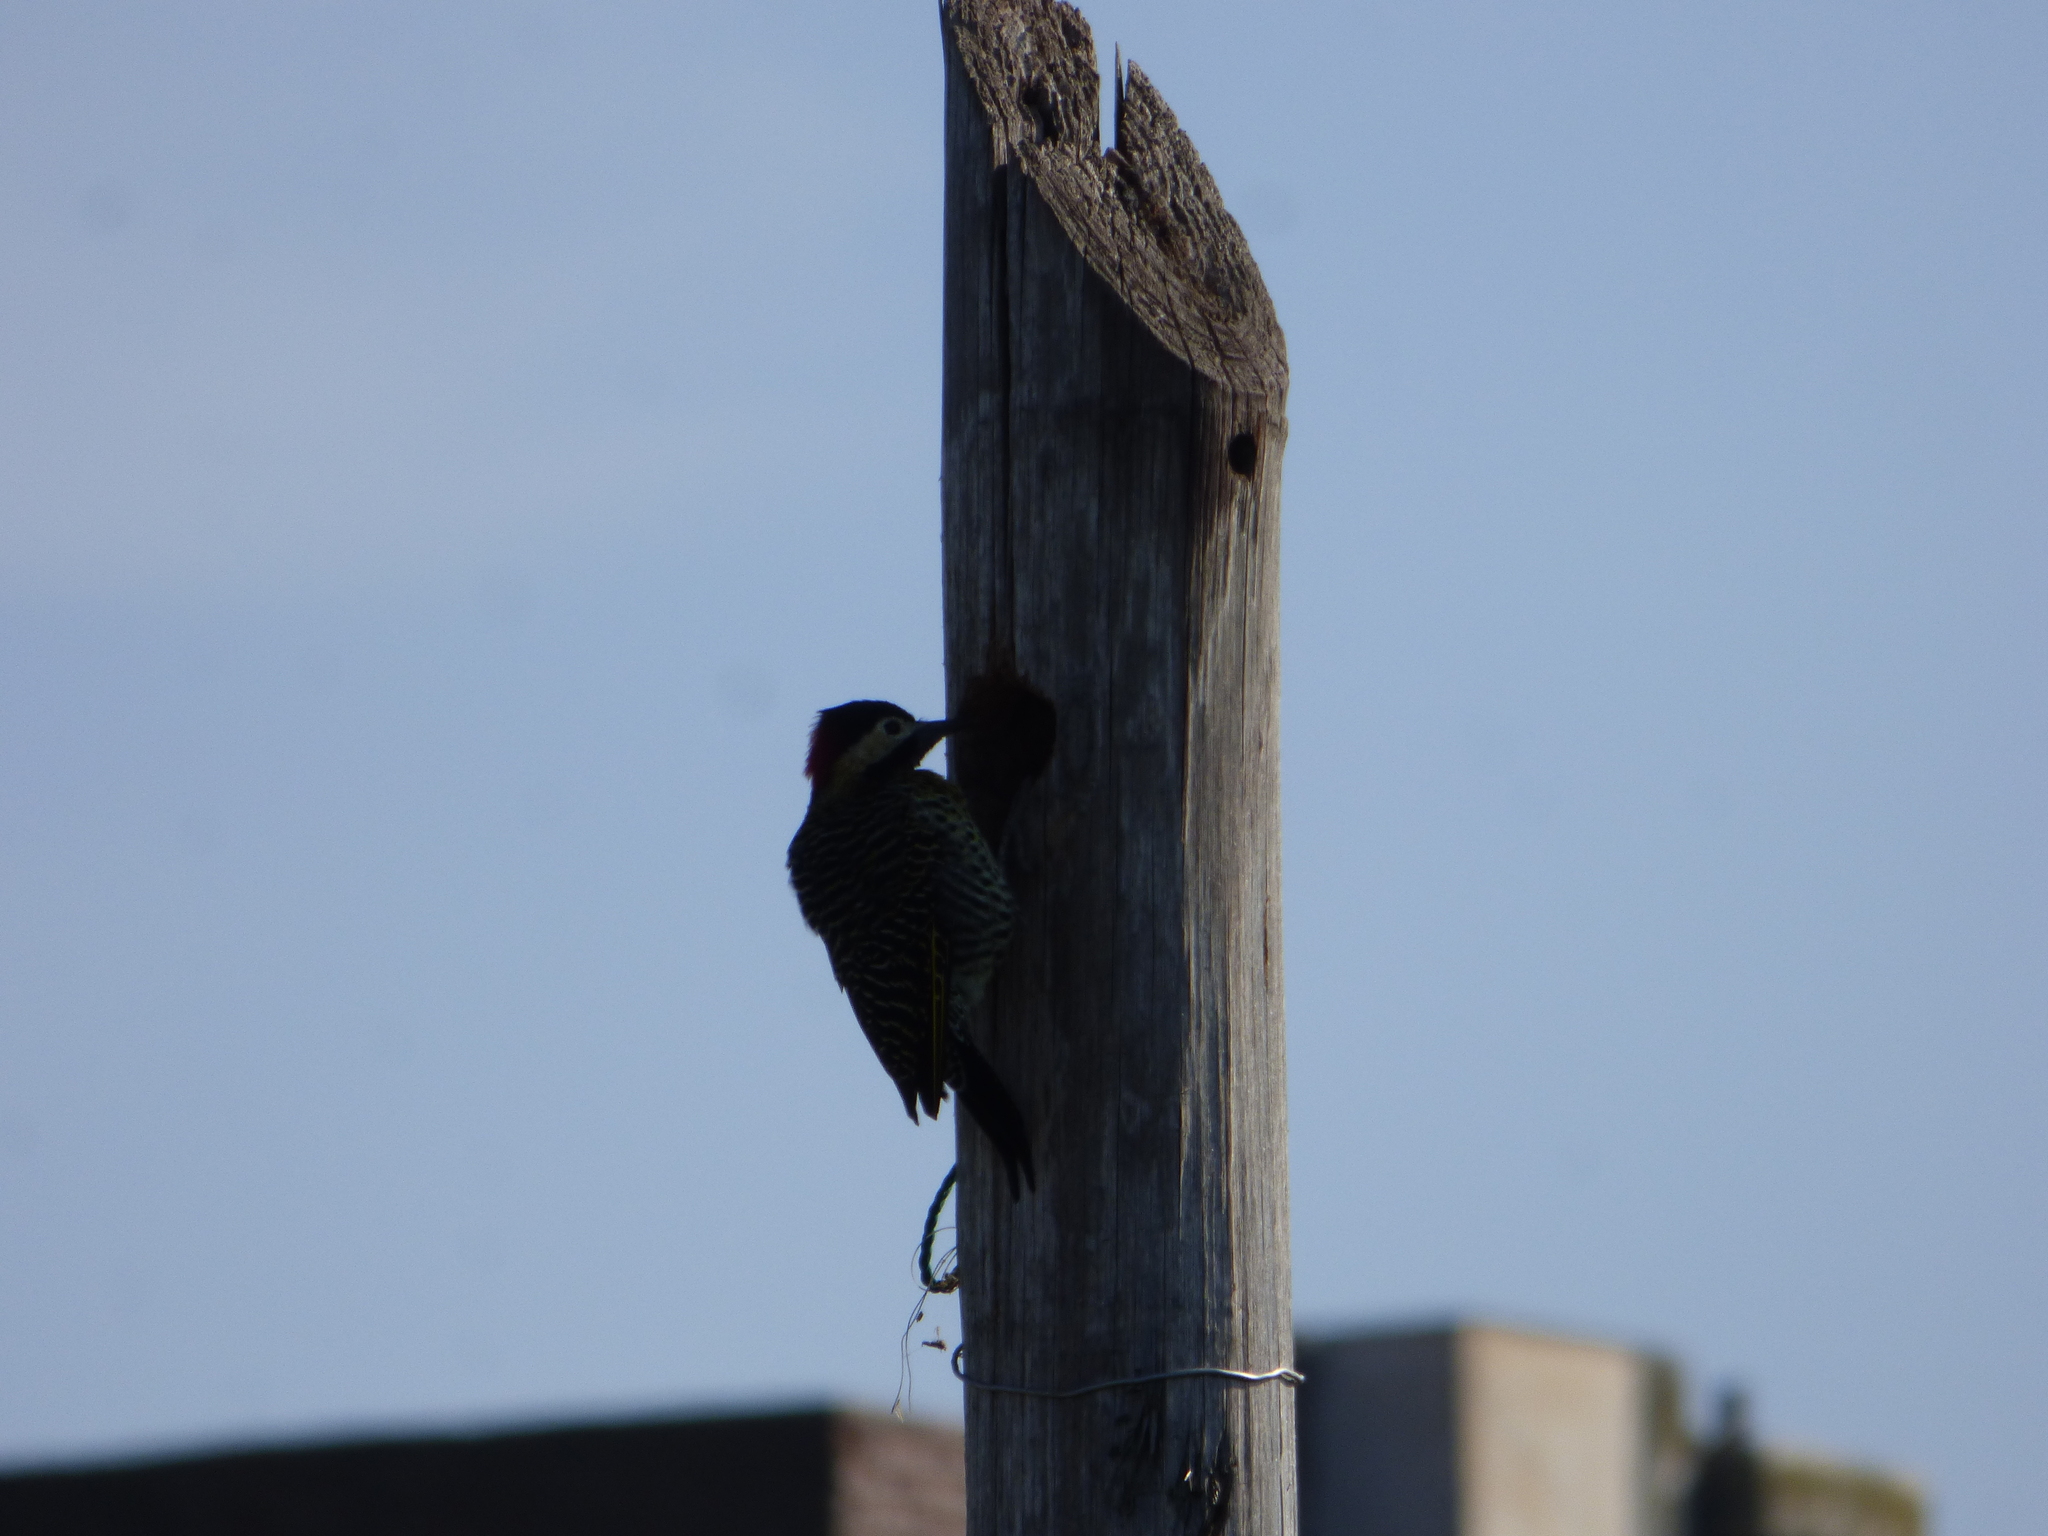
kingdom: Animalia
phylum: Chordata
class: Aves
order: Piciformes
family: Picidae
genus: Colaptes
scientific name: Colaptes melanochloros
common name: Green-barred woodpecker
